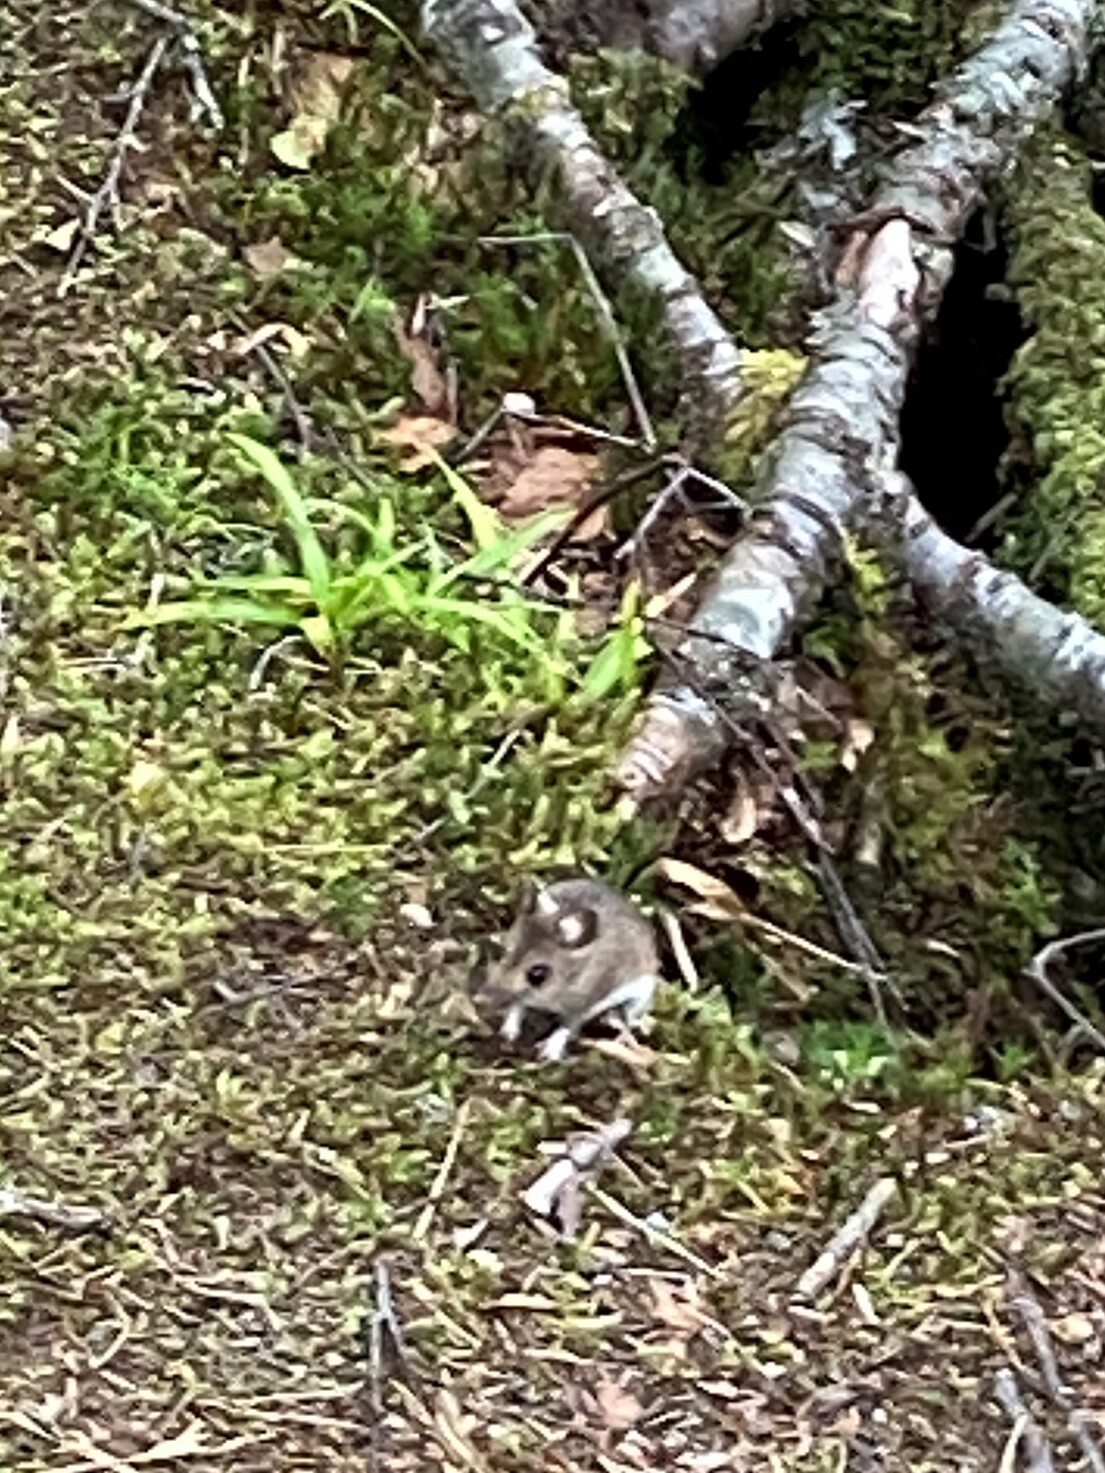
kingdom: Animalia
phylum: Chordata
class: Mammalia
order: Rodentia
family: Muridae
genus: Apodemus
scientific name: Apodemus sylvaticus
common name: Wood mouse
